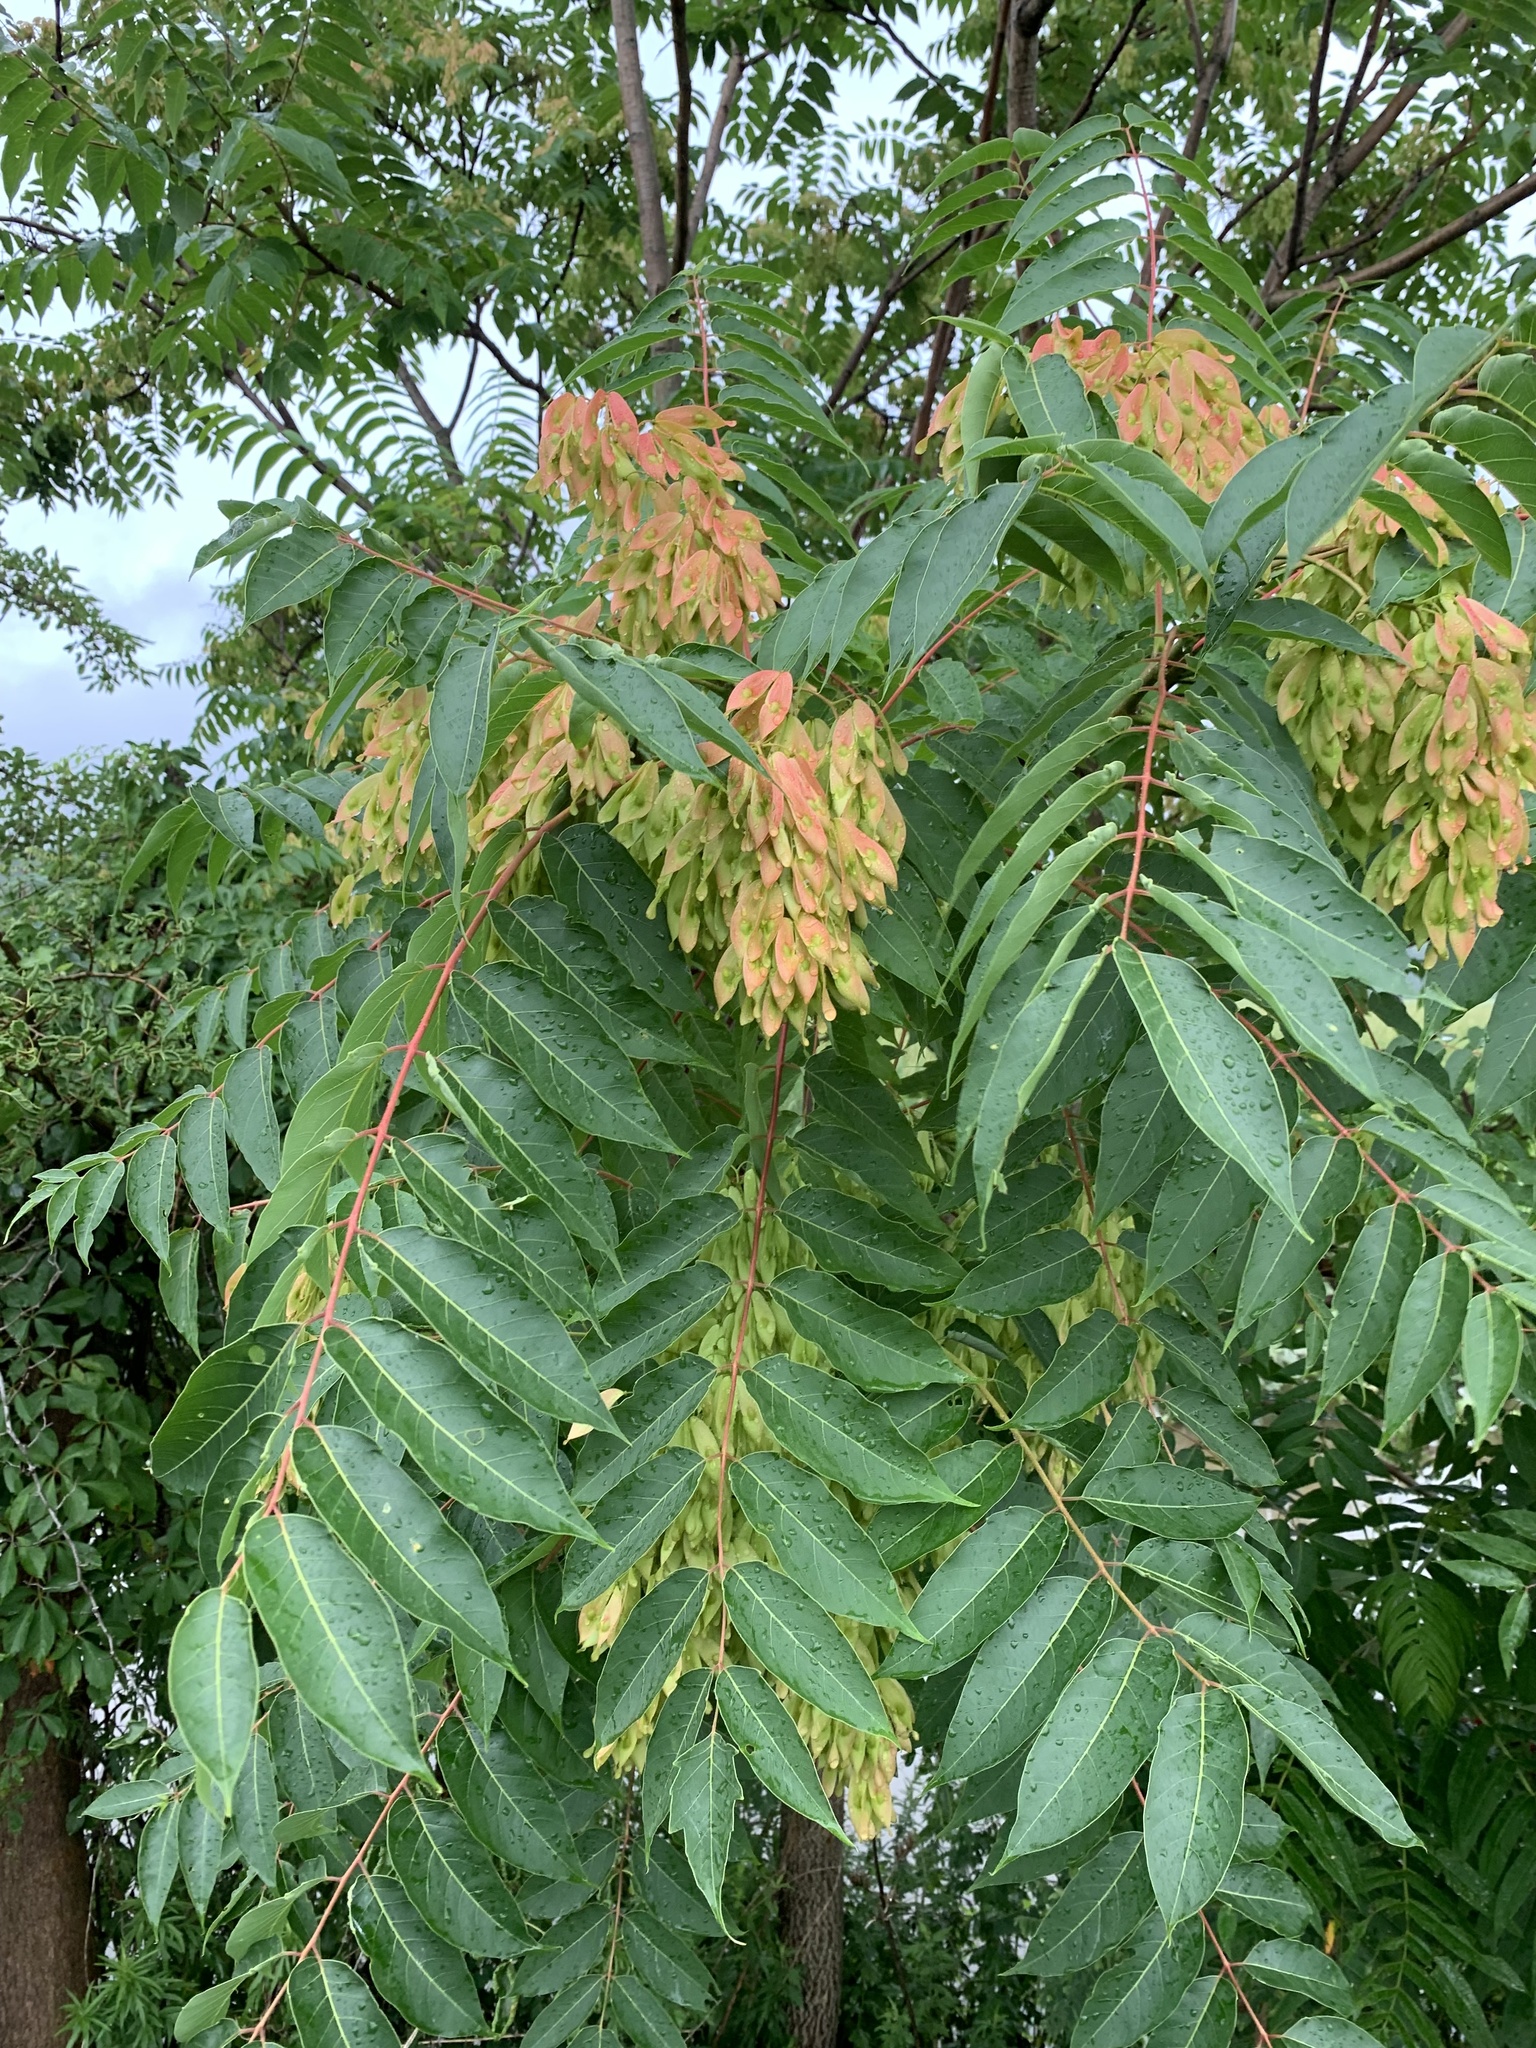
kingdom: Plantae
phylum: Tracheophyta
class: Magnoliopsida
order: Sapindales
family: Simaroubaceae
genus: Ailanthus
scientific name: Ailanthus altissima
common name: Tree-of-heaven
